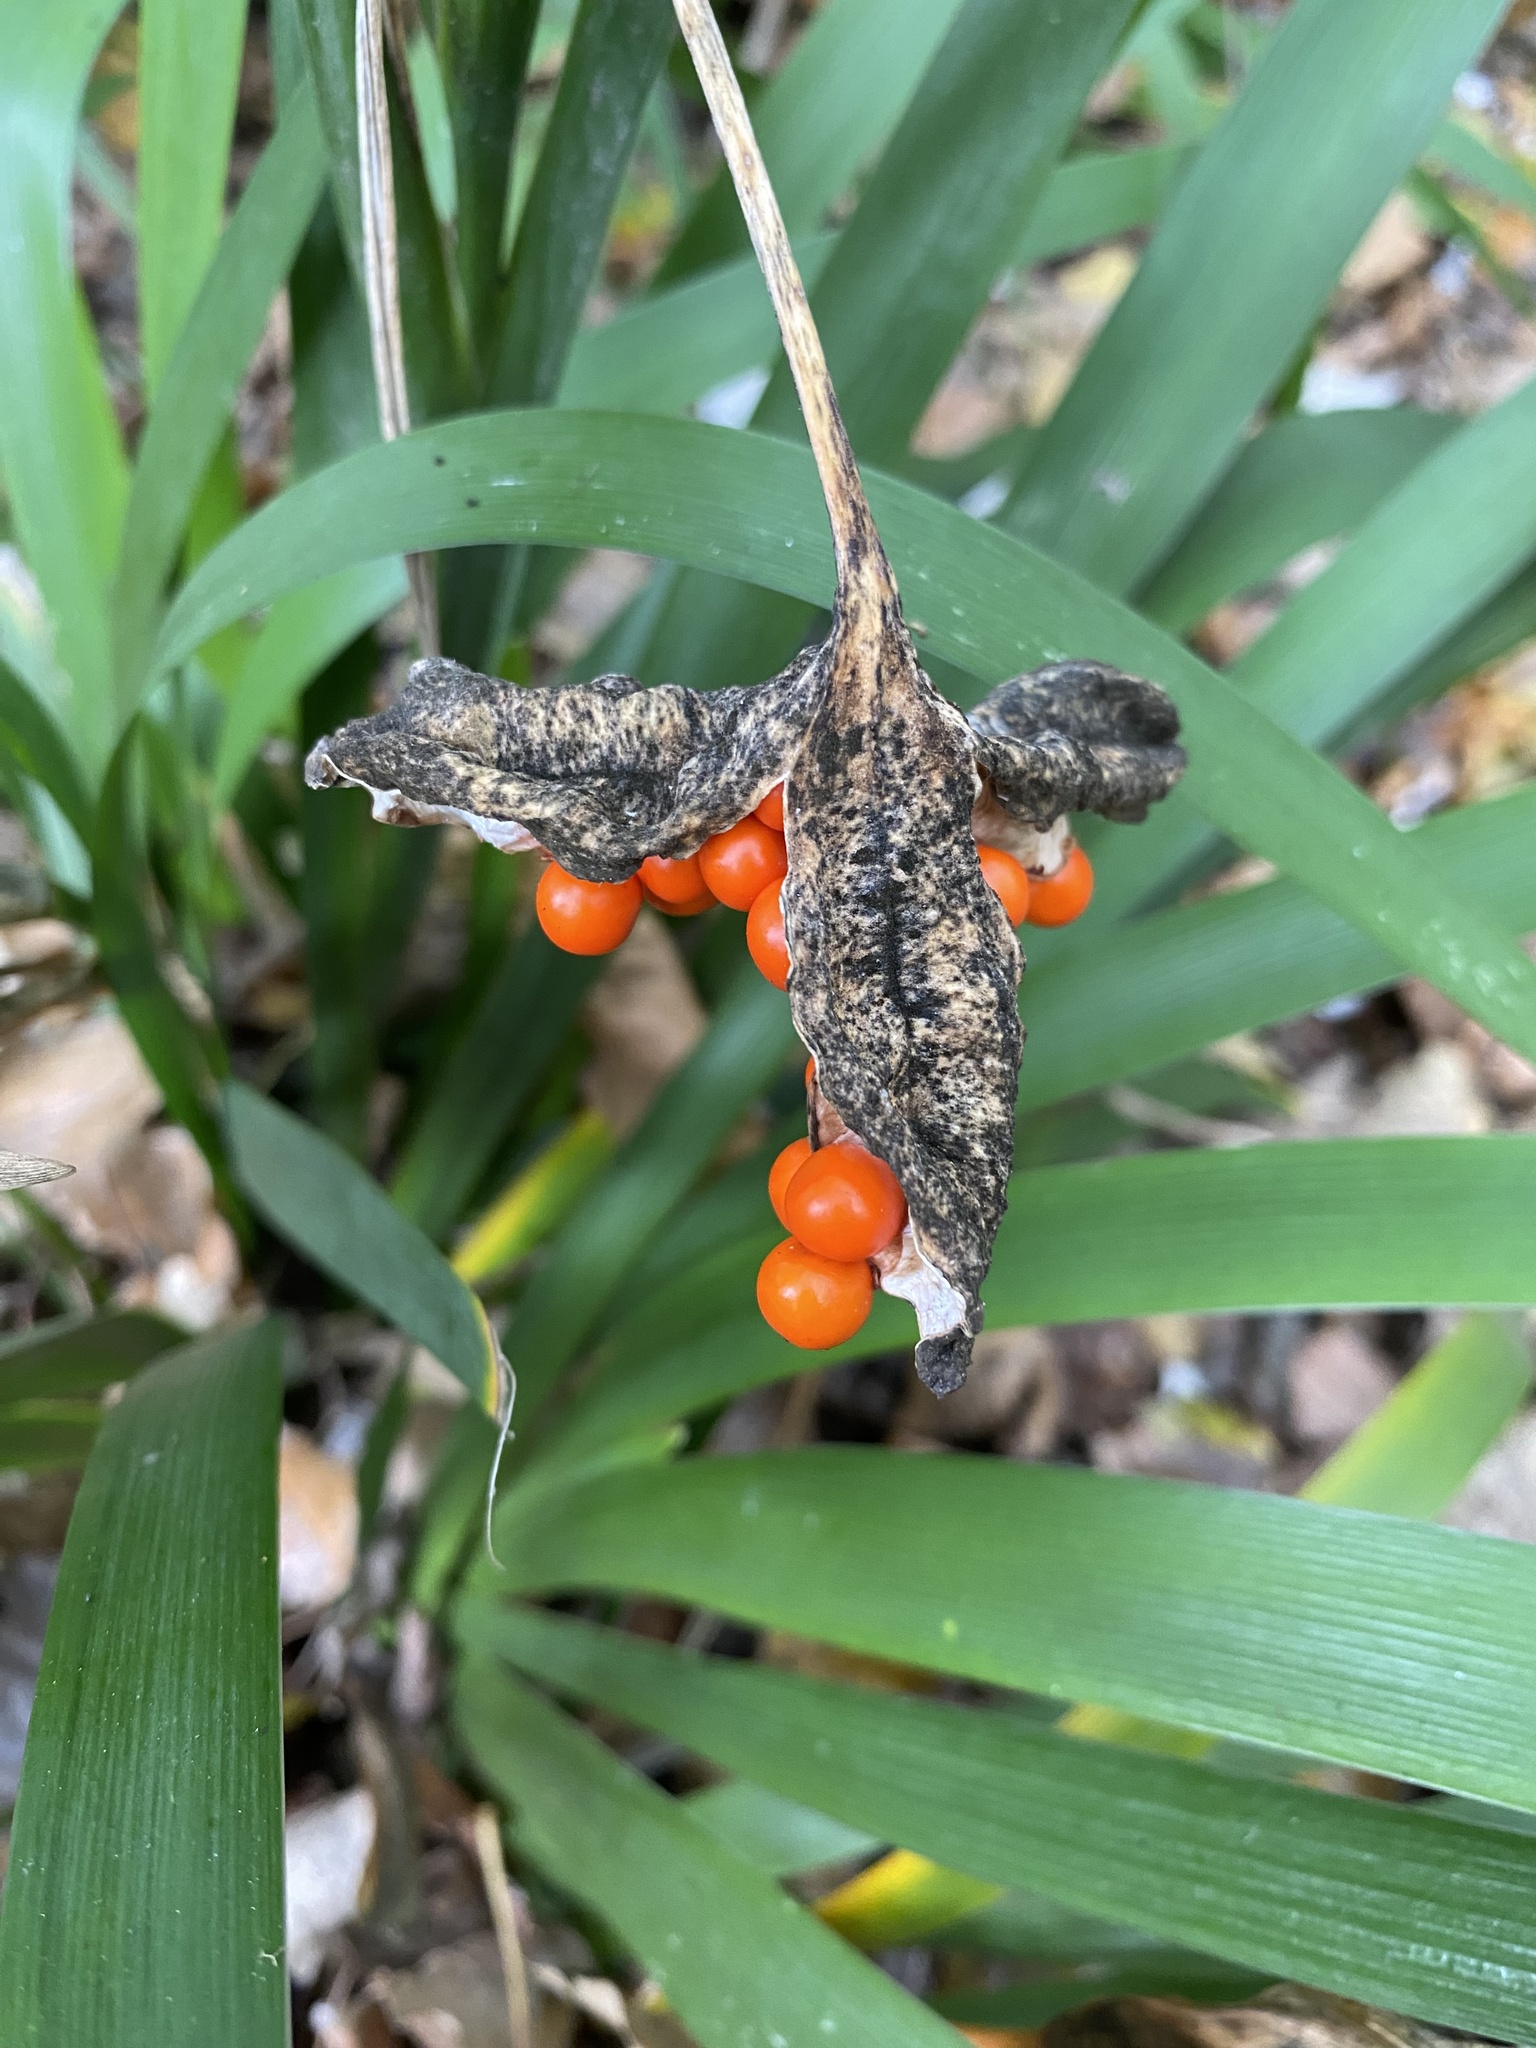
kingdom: Plantae
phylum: Tracheophyta
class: Liliopsida
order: Asparagales
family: Iridaceae
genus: Iris
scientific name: Iris foetidissima
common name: Stinking iris
